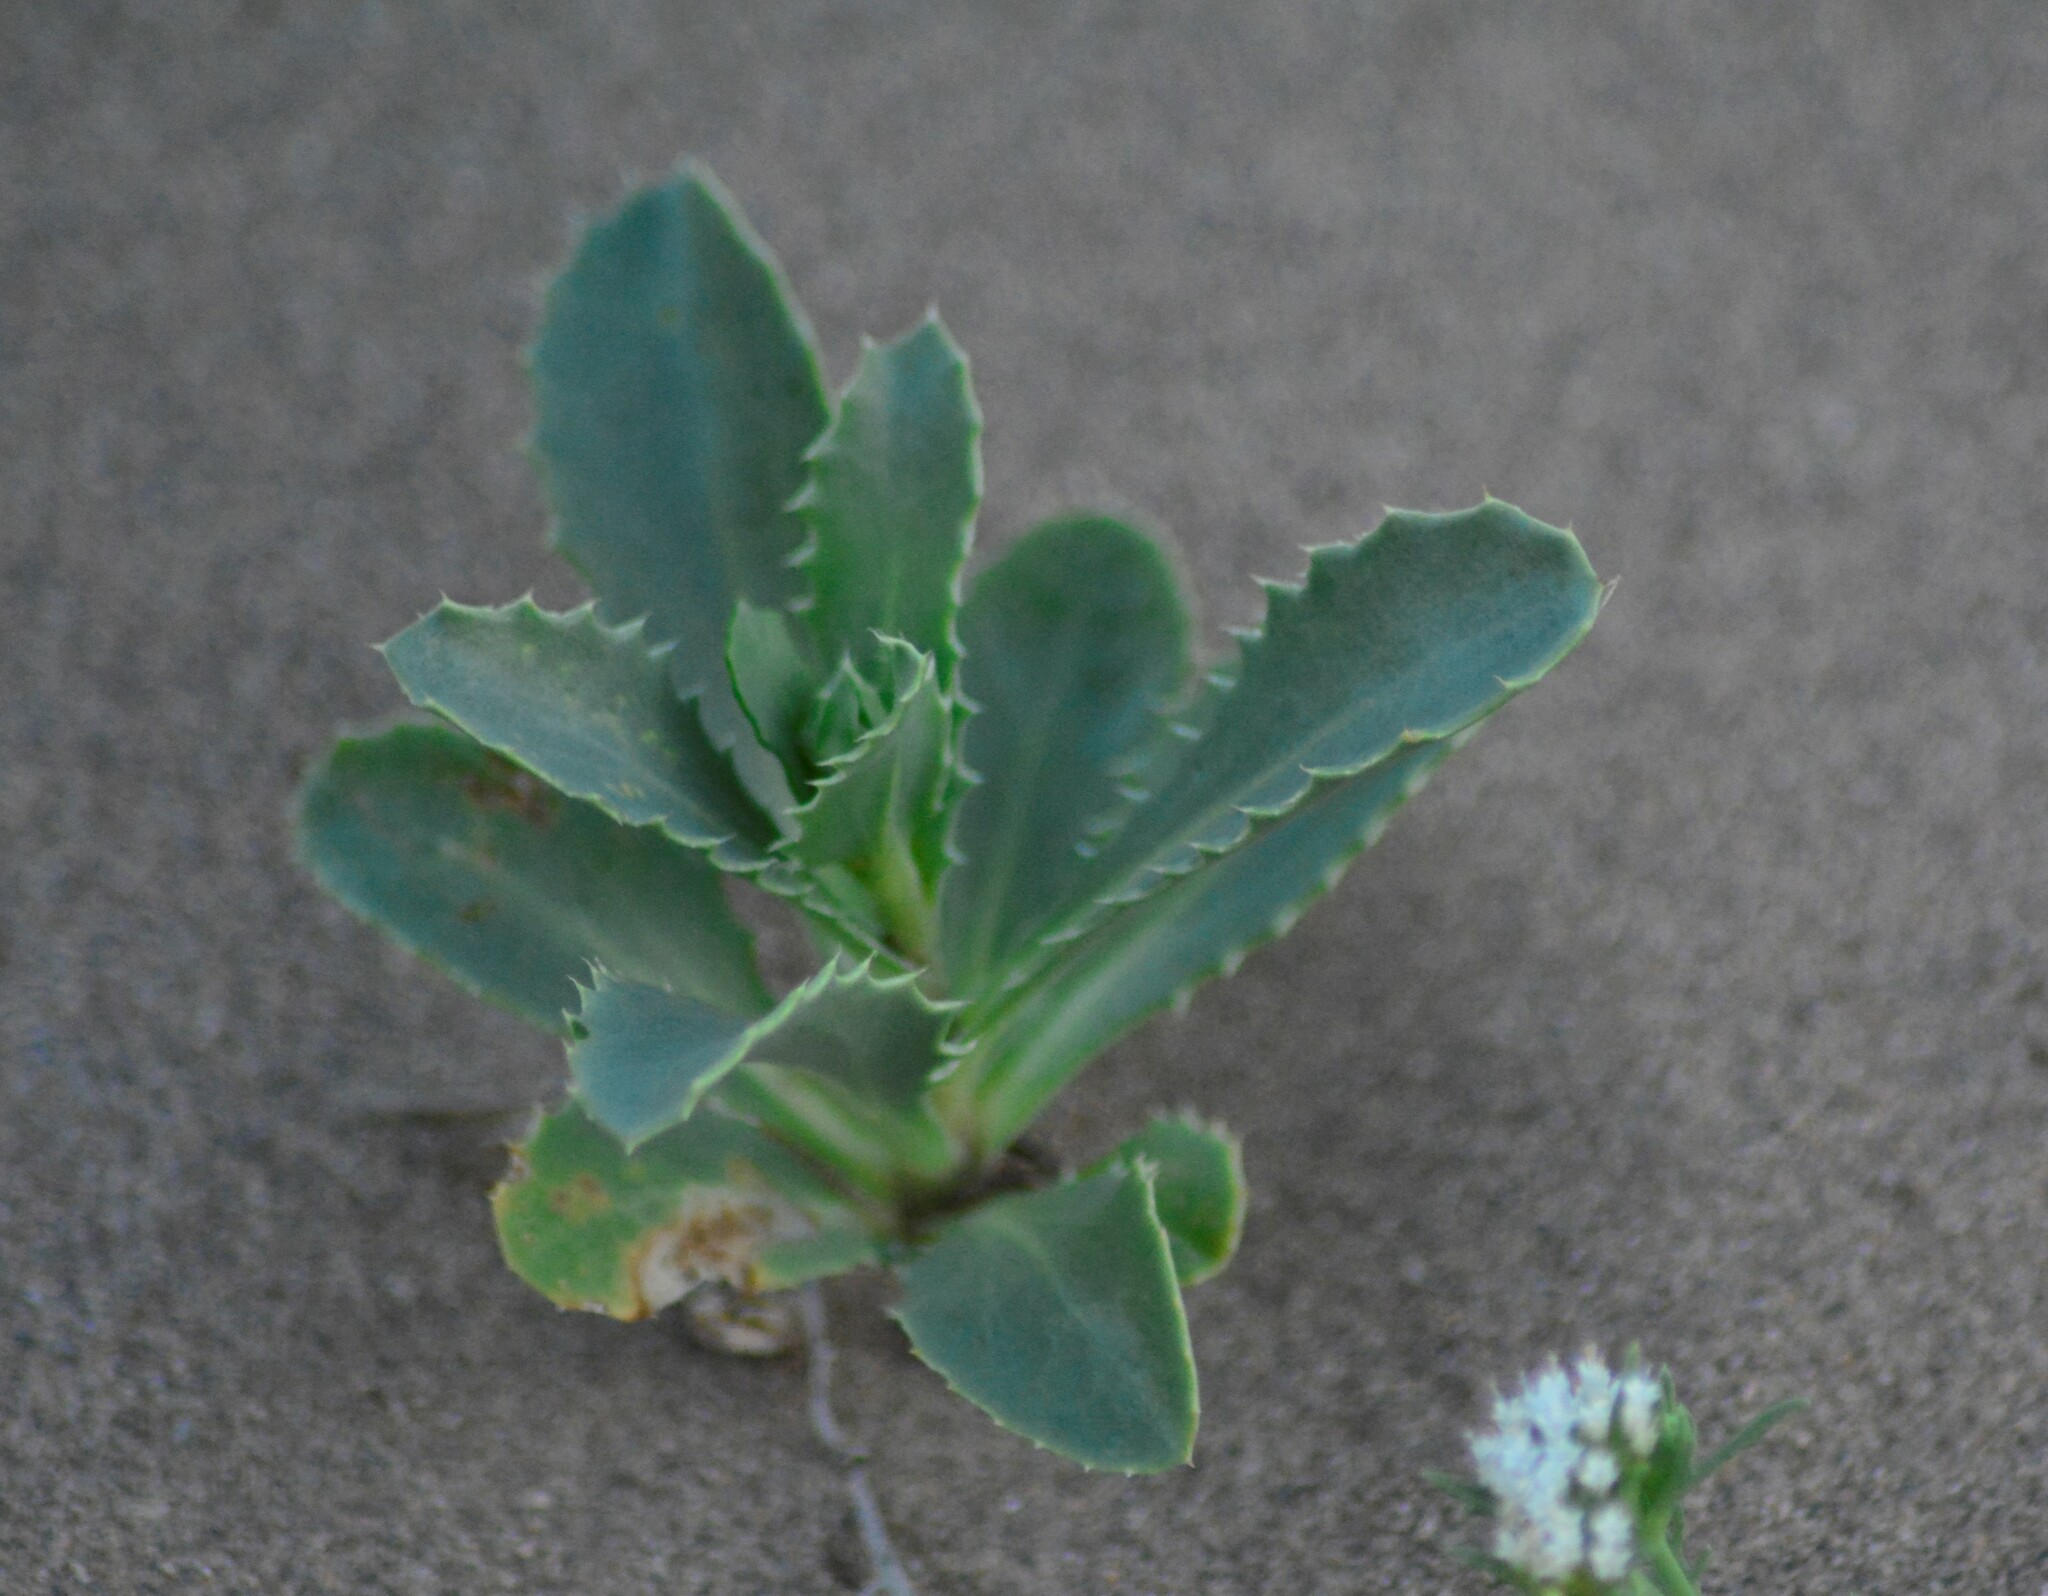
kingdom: Plantae
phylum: Tracheophyta
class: Magnoliopsida
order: Asterales
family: Calyceraceae
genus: Calycera
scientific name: Calycera crassifolia
